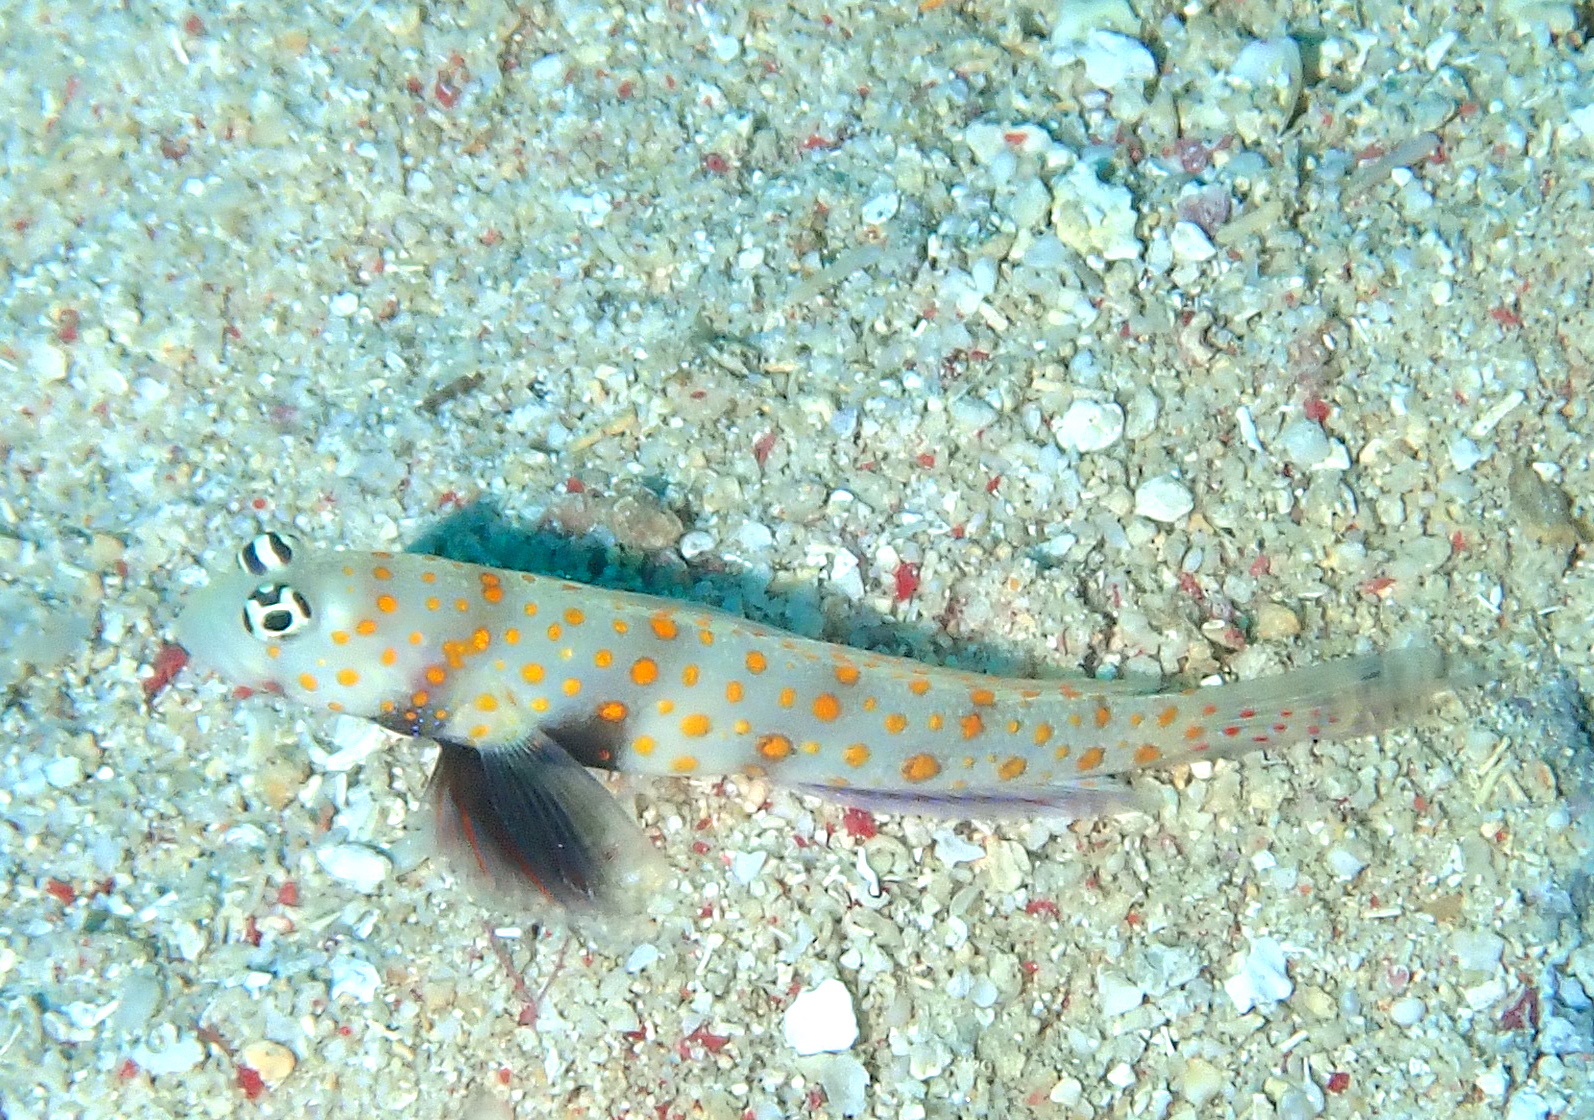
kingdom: Animalia
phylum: Chordata
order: Perciformes
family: Gobiidae
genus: Amblyeleotris
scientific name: Amblyeleotris guttata
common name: Black-chest shrimp-goby
